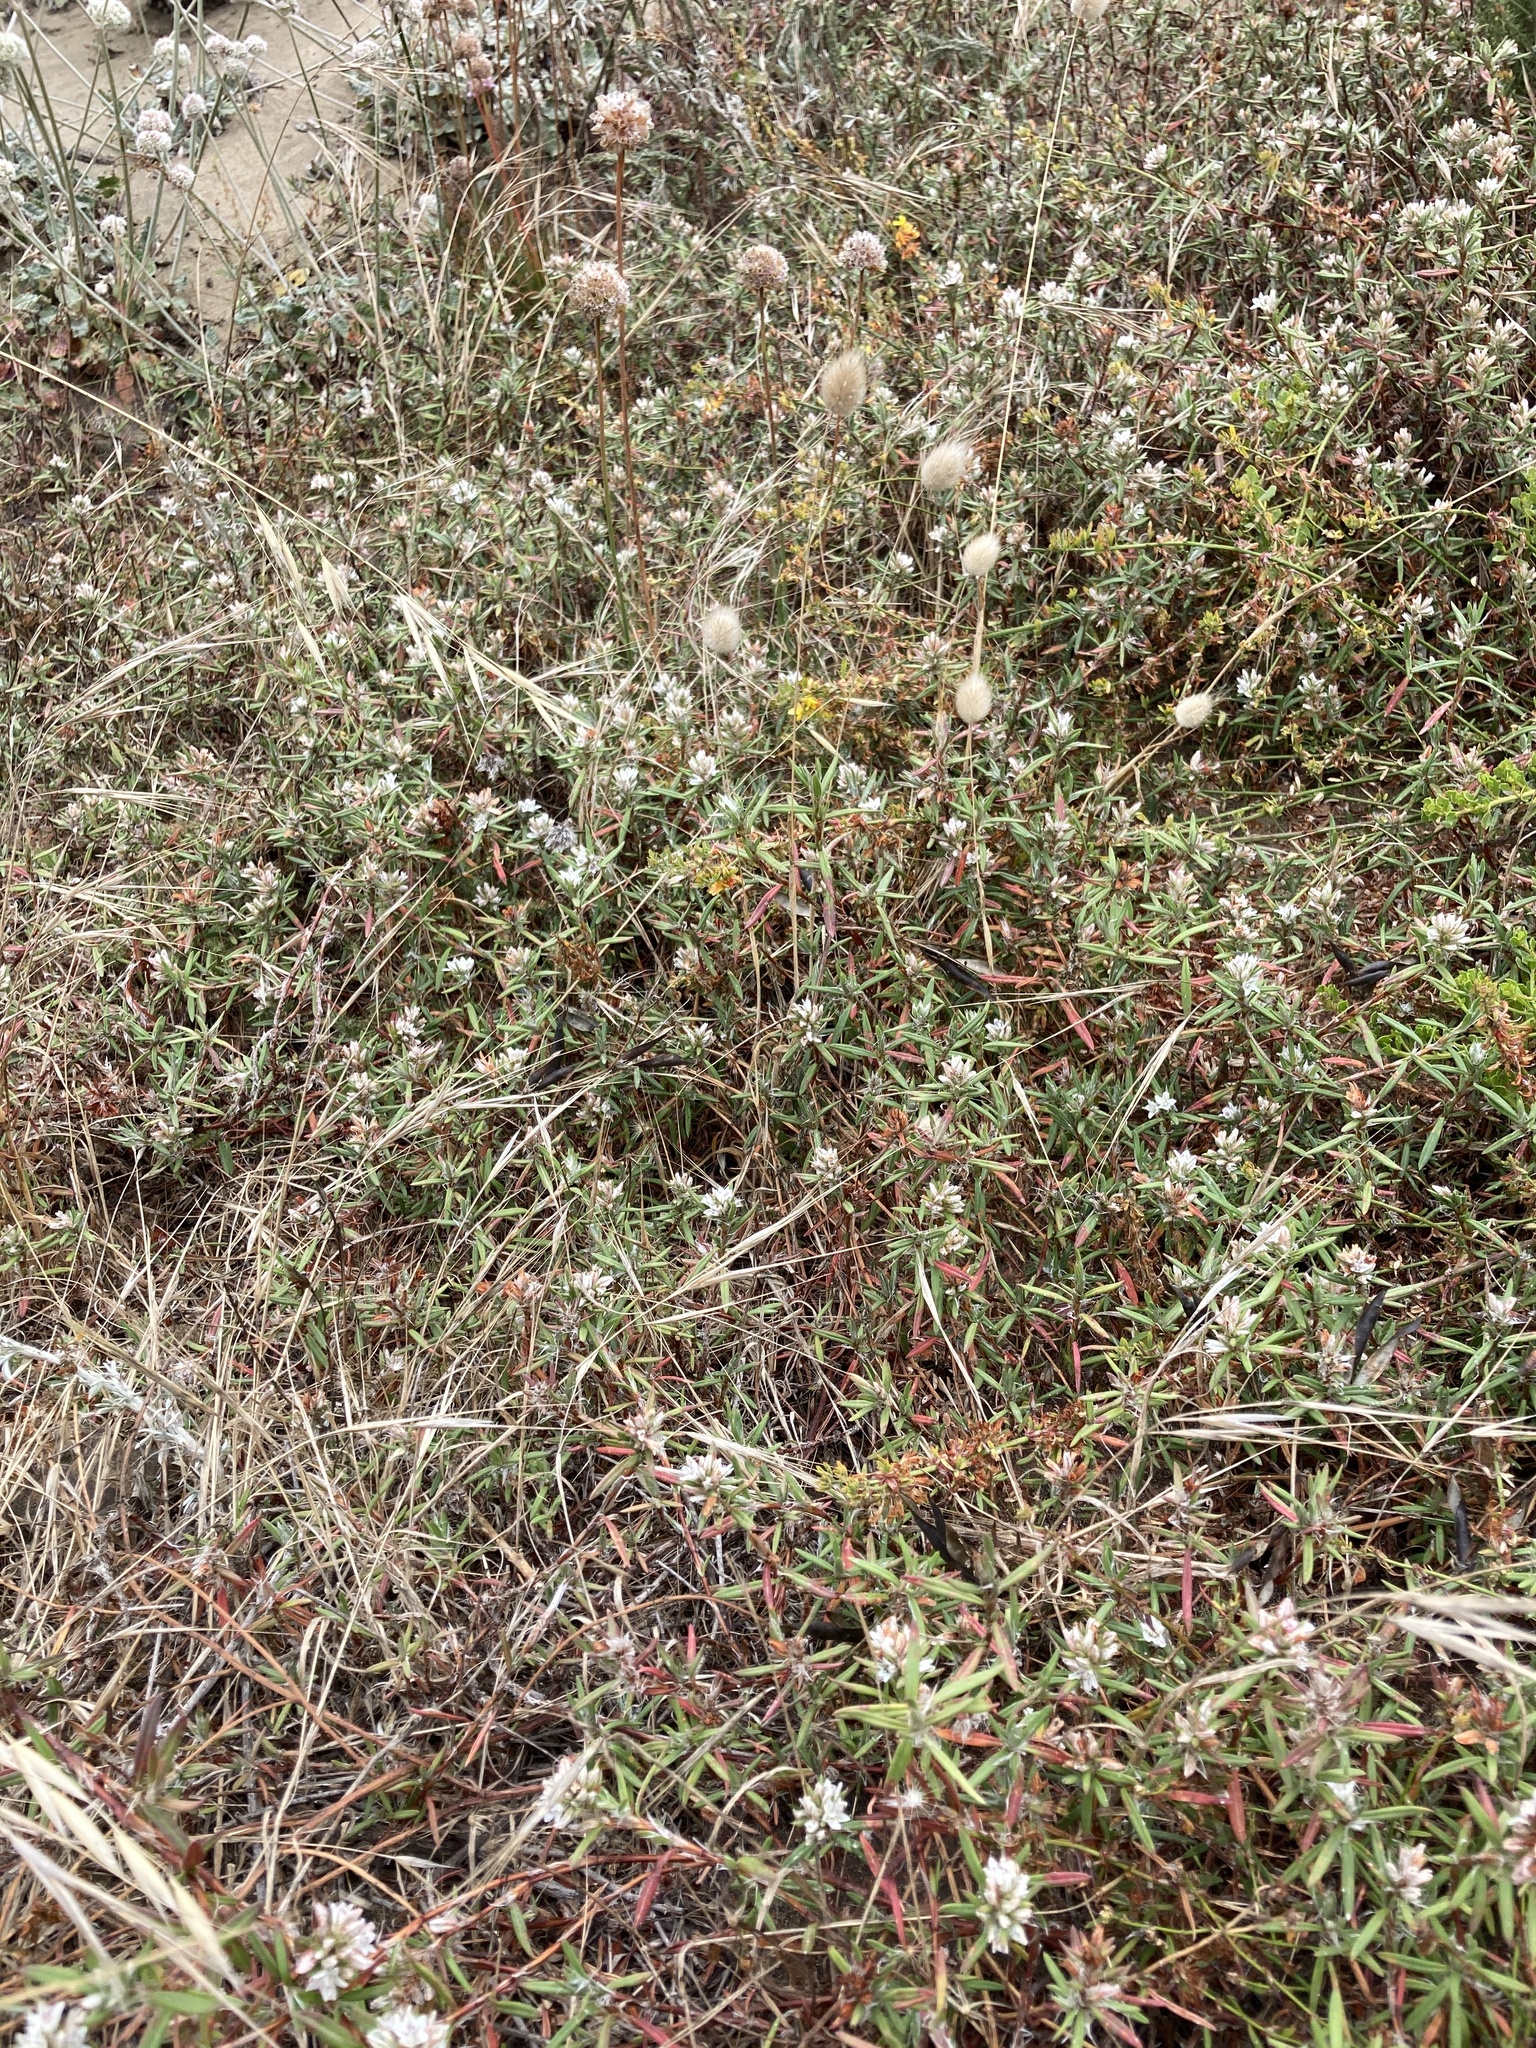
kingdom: Plantae
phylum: Tracheophyta
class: Magnoliopsida
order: Caryophyllales
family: Polygonaceae
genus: Polygonum
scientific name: Polygonum paronychia
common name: Dune knotweed
